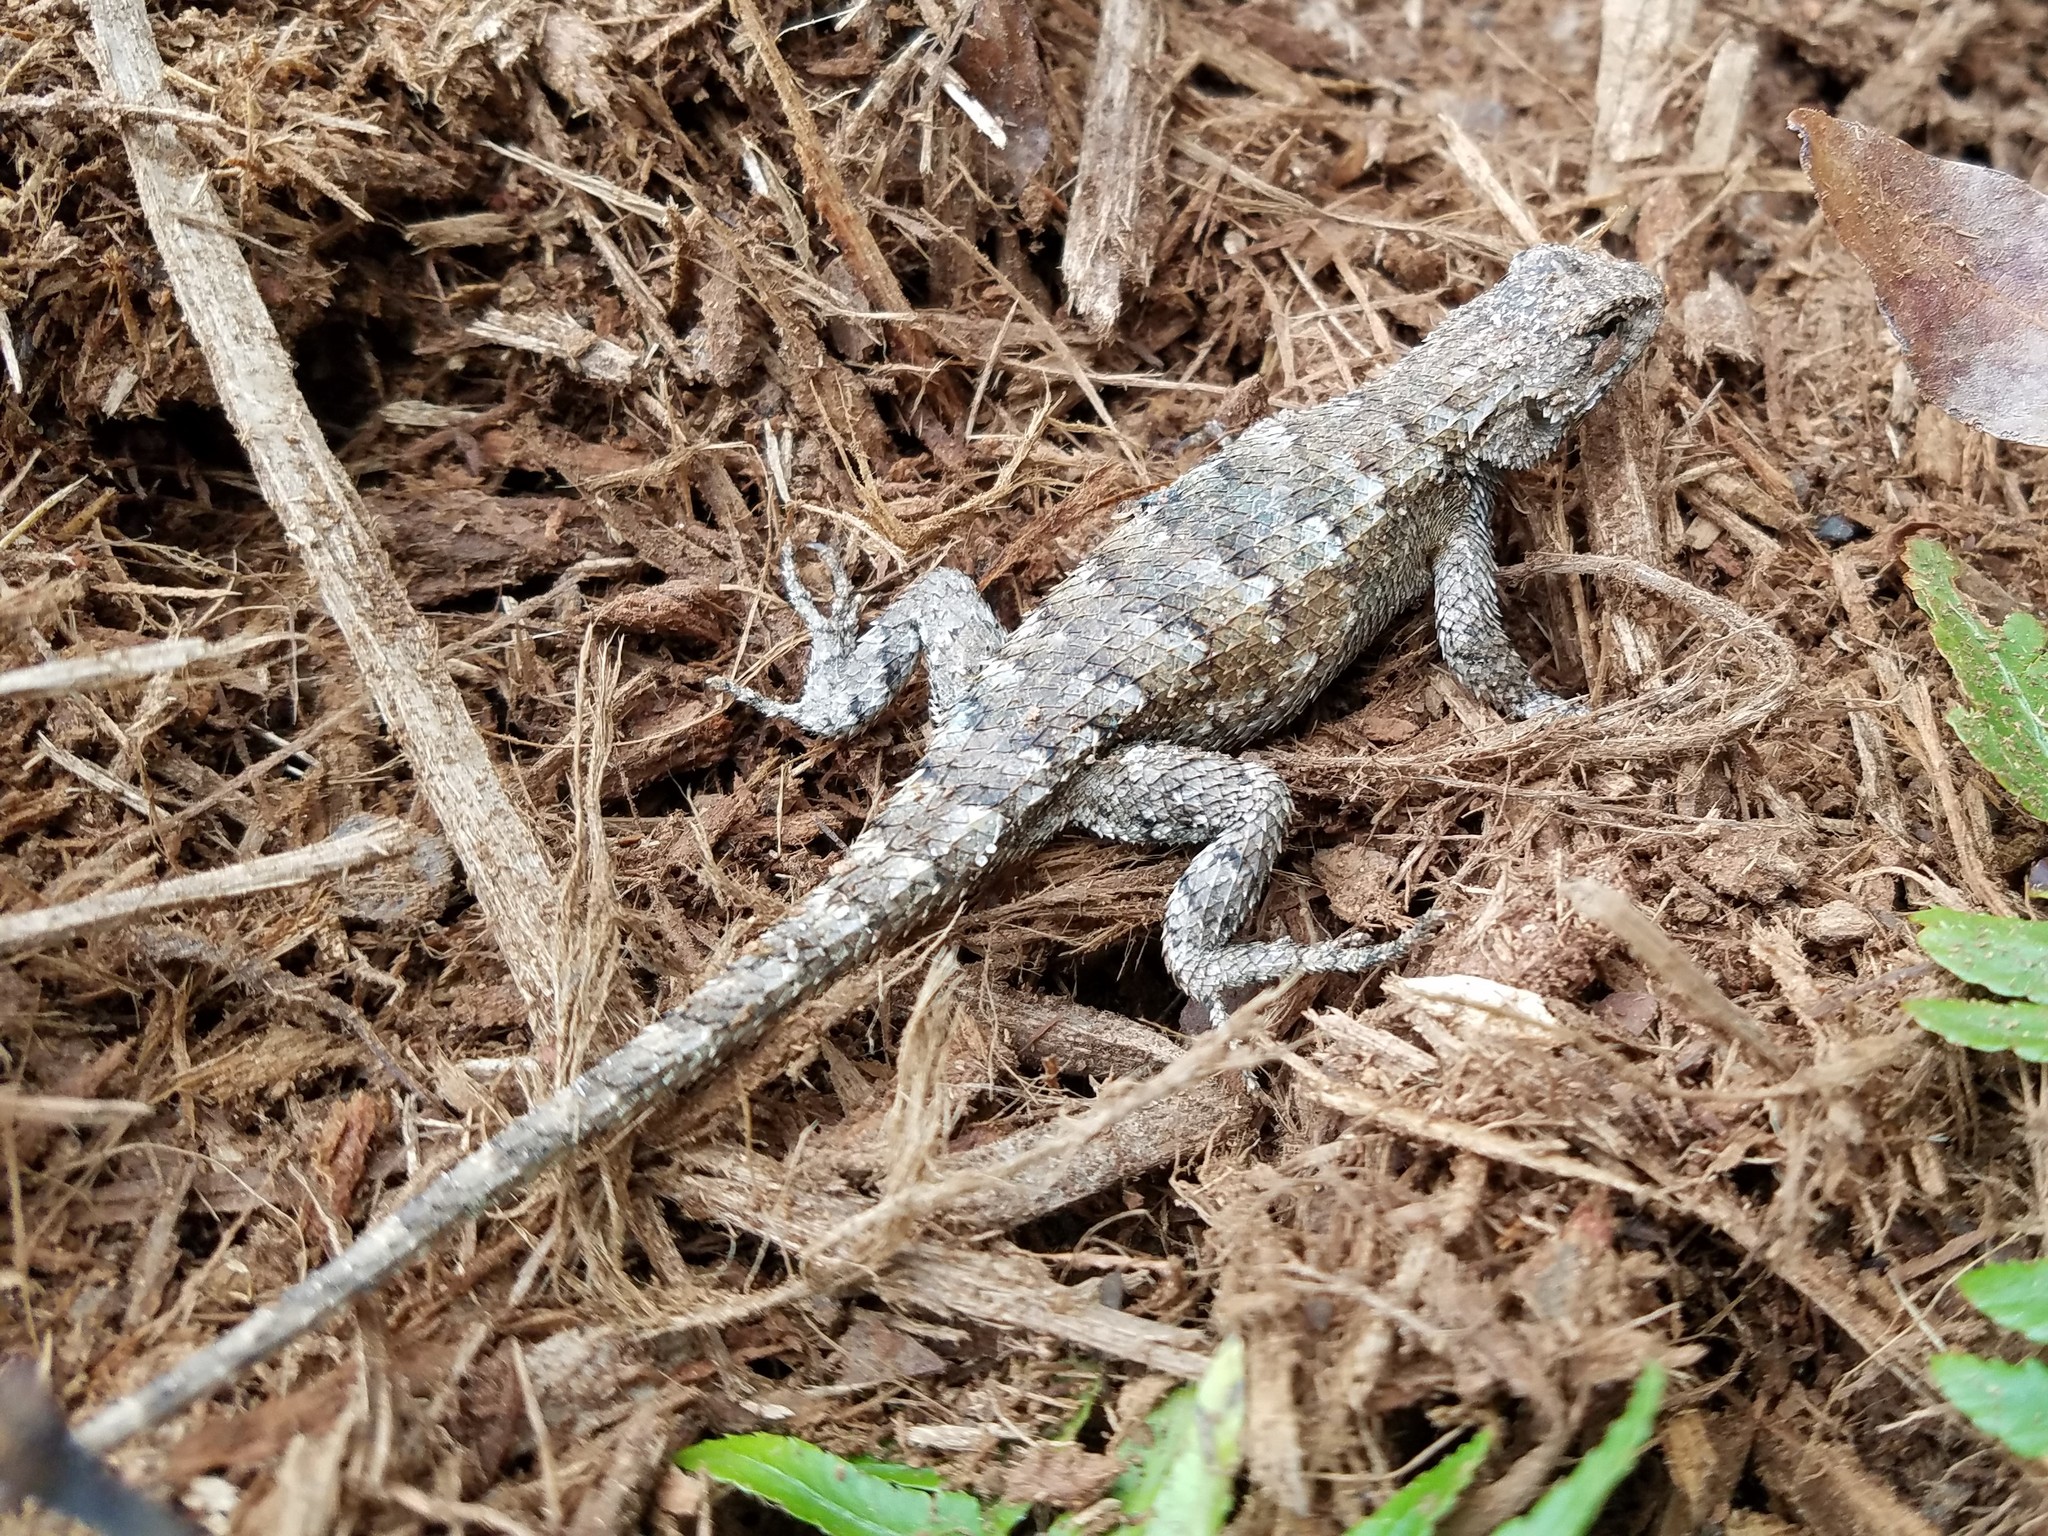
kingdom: Animalia
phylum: Chordata
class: Squamata
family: Phrynosomatidae
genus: Sceloporus
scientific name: Sceloporus undulatus
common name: Eastern fence lizard
